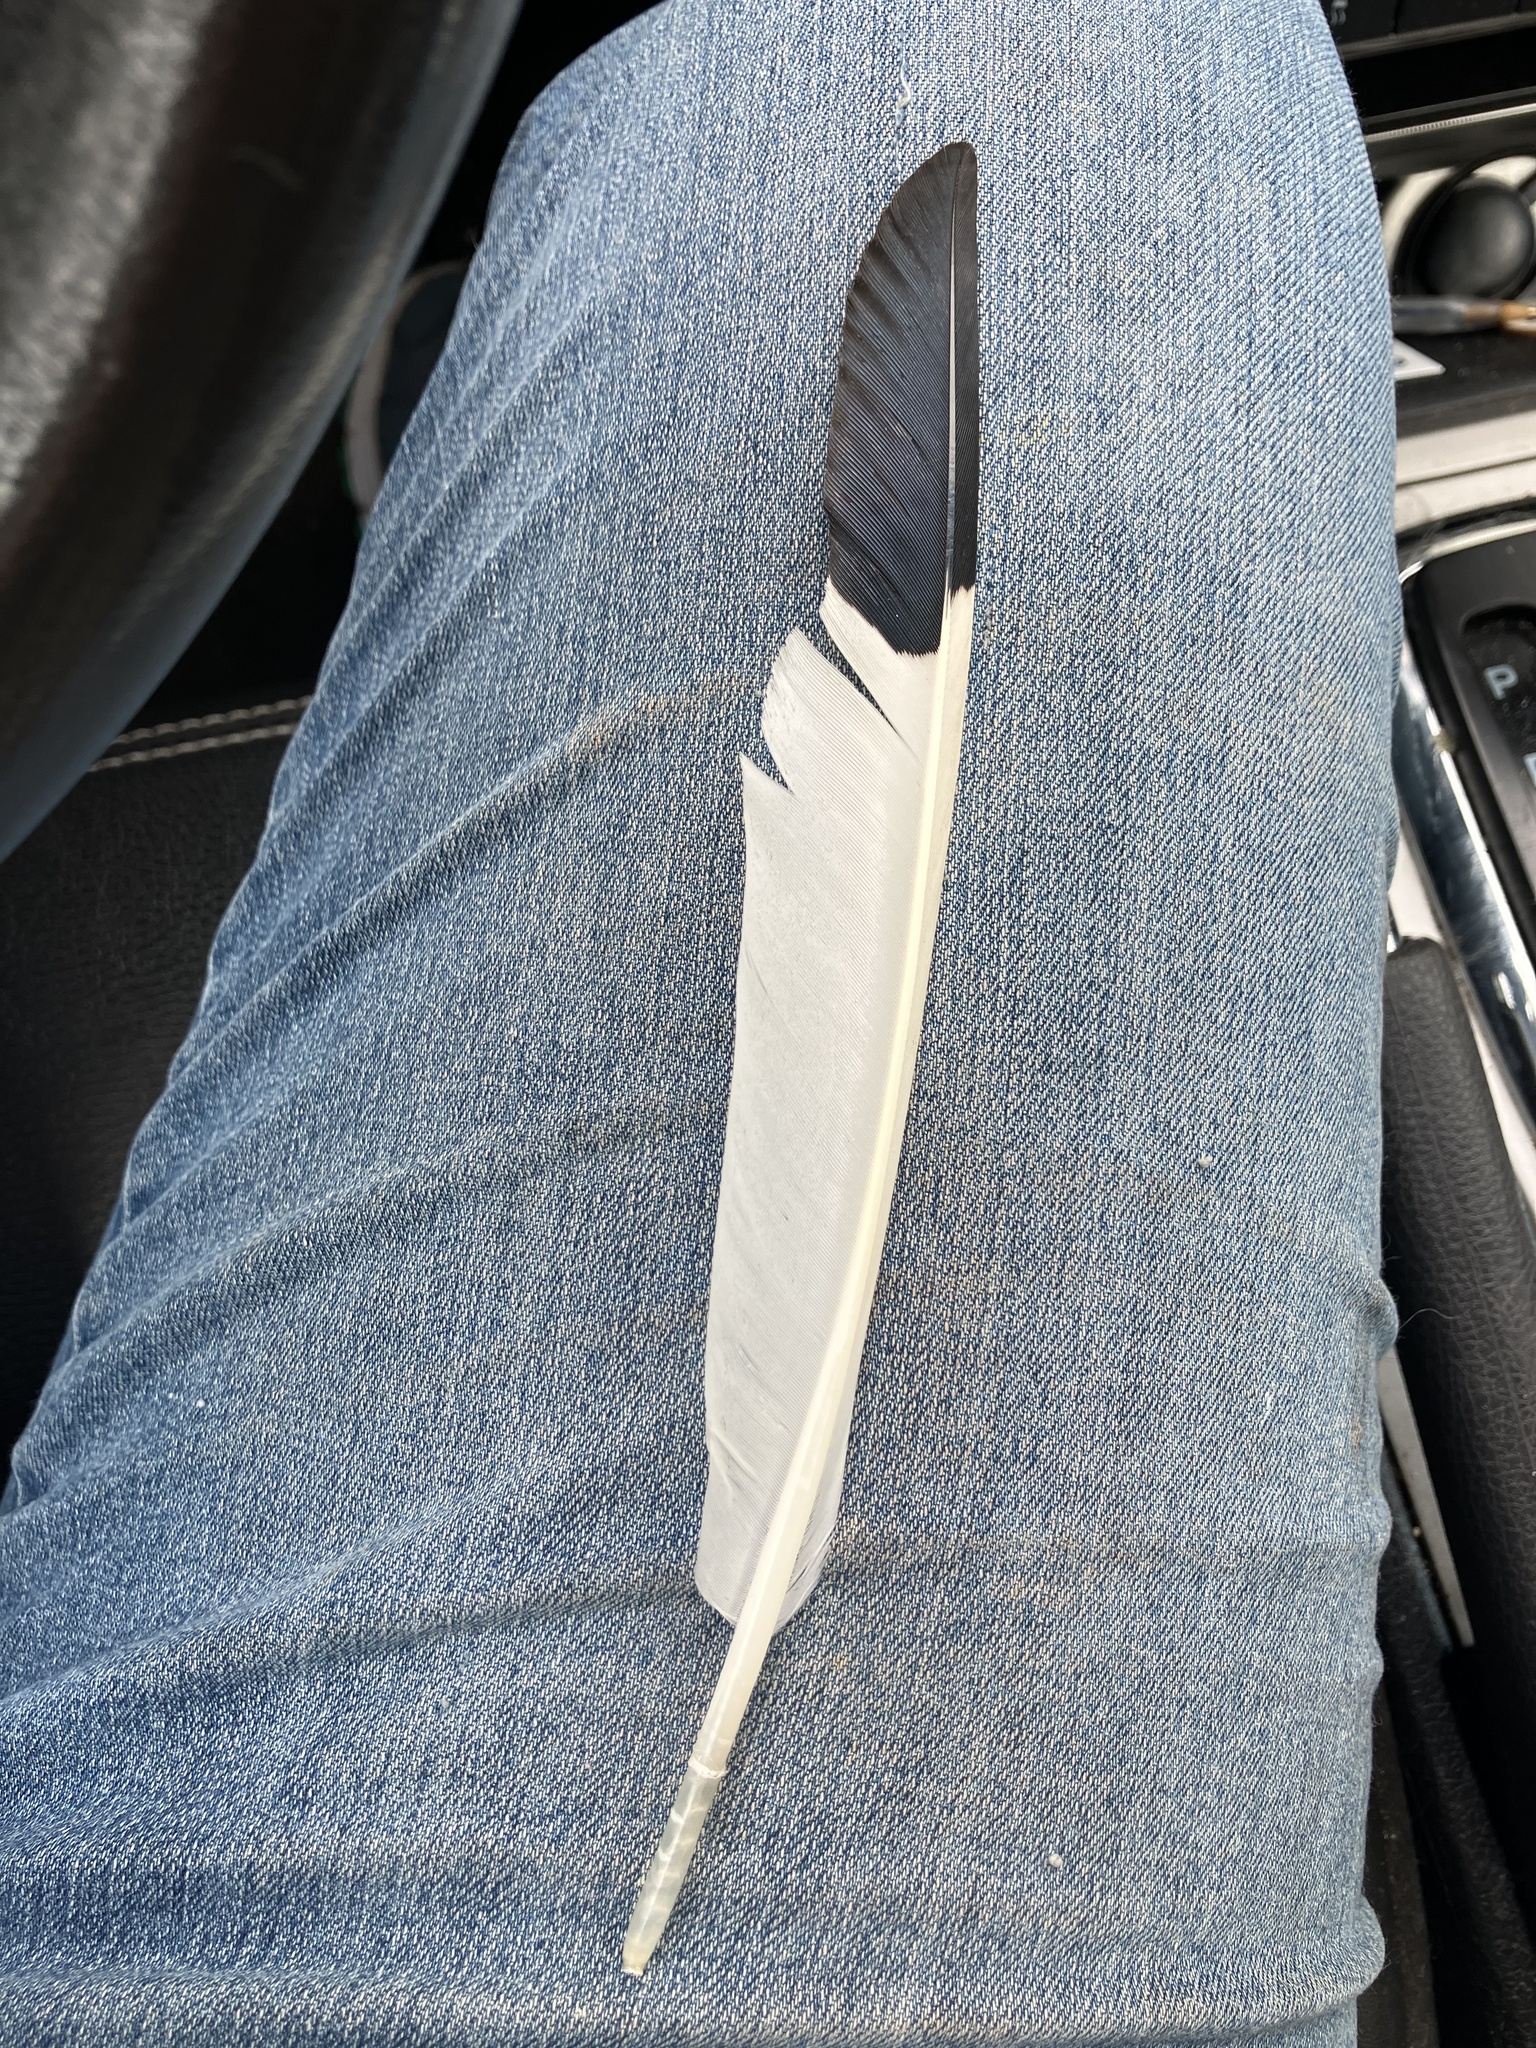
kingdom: Animalia
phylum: Chordata
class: Aves
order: Pelecaniformes
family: Threskiornithidae
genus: Eudocimus
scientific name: Eudocimus albus
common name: White ibis
